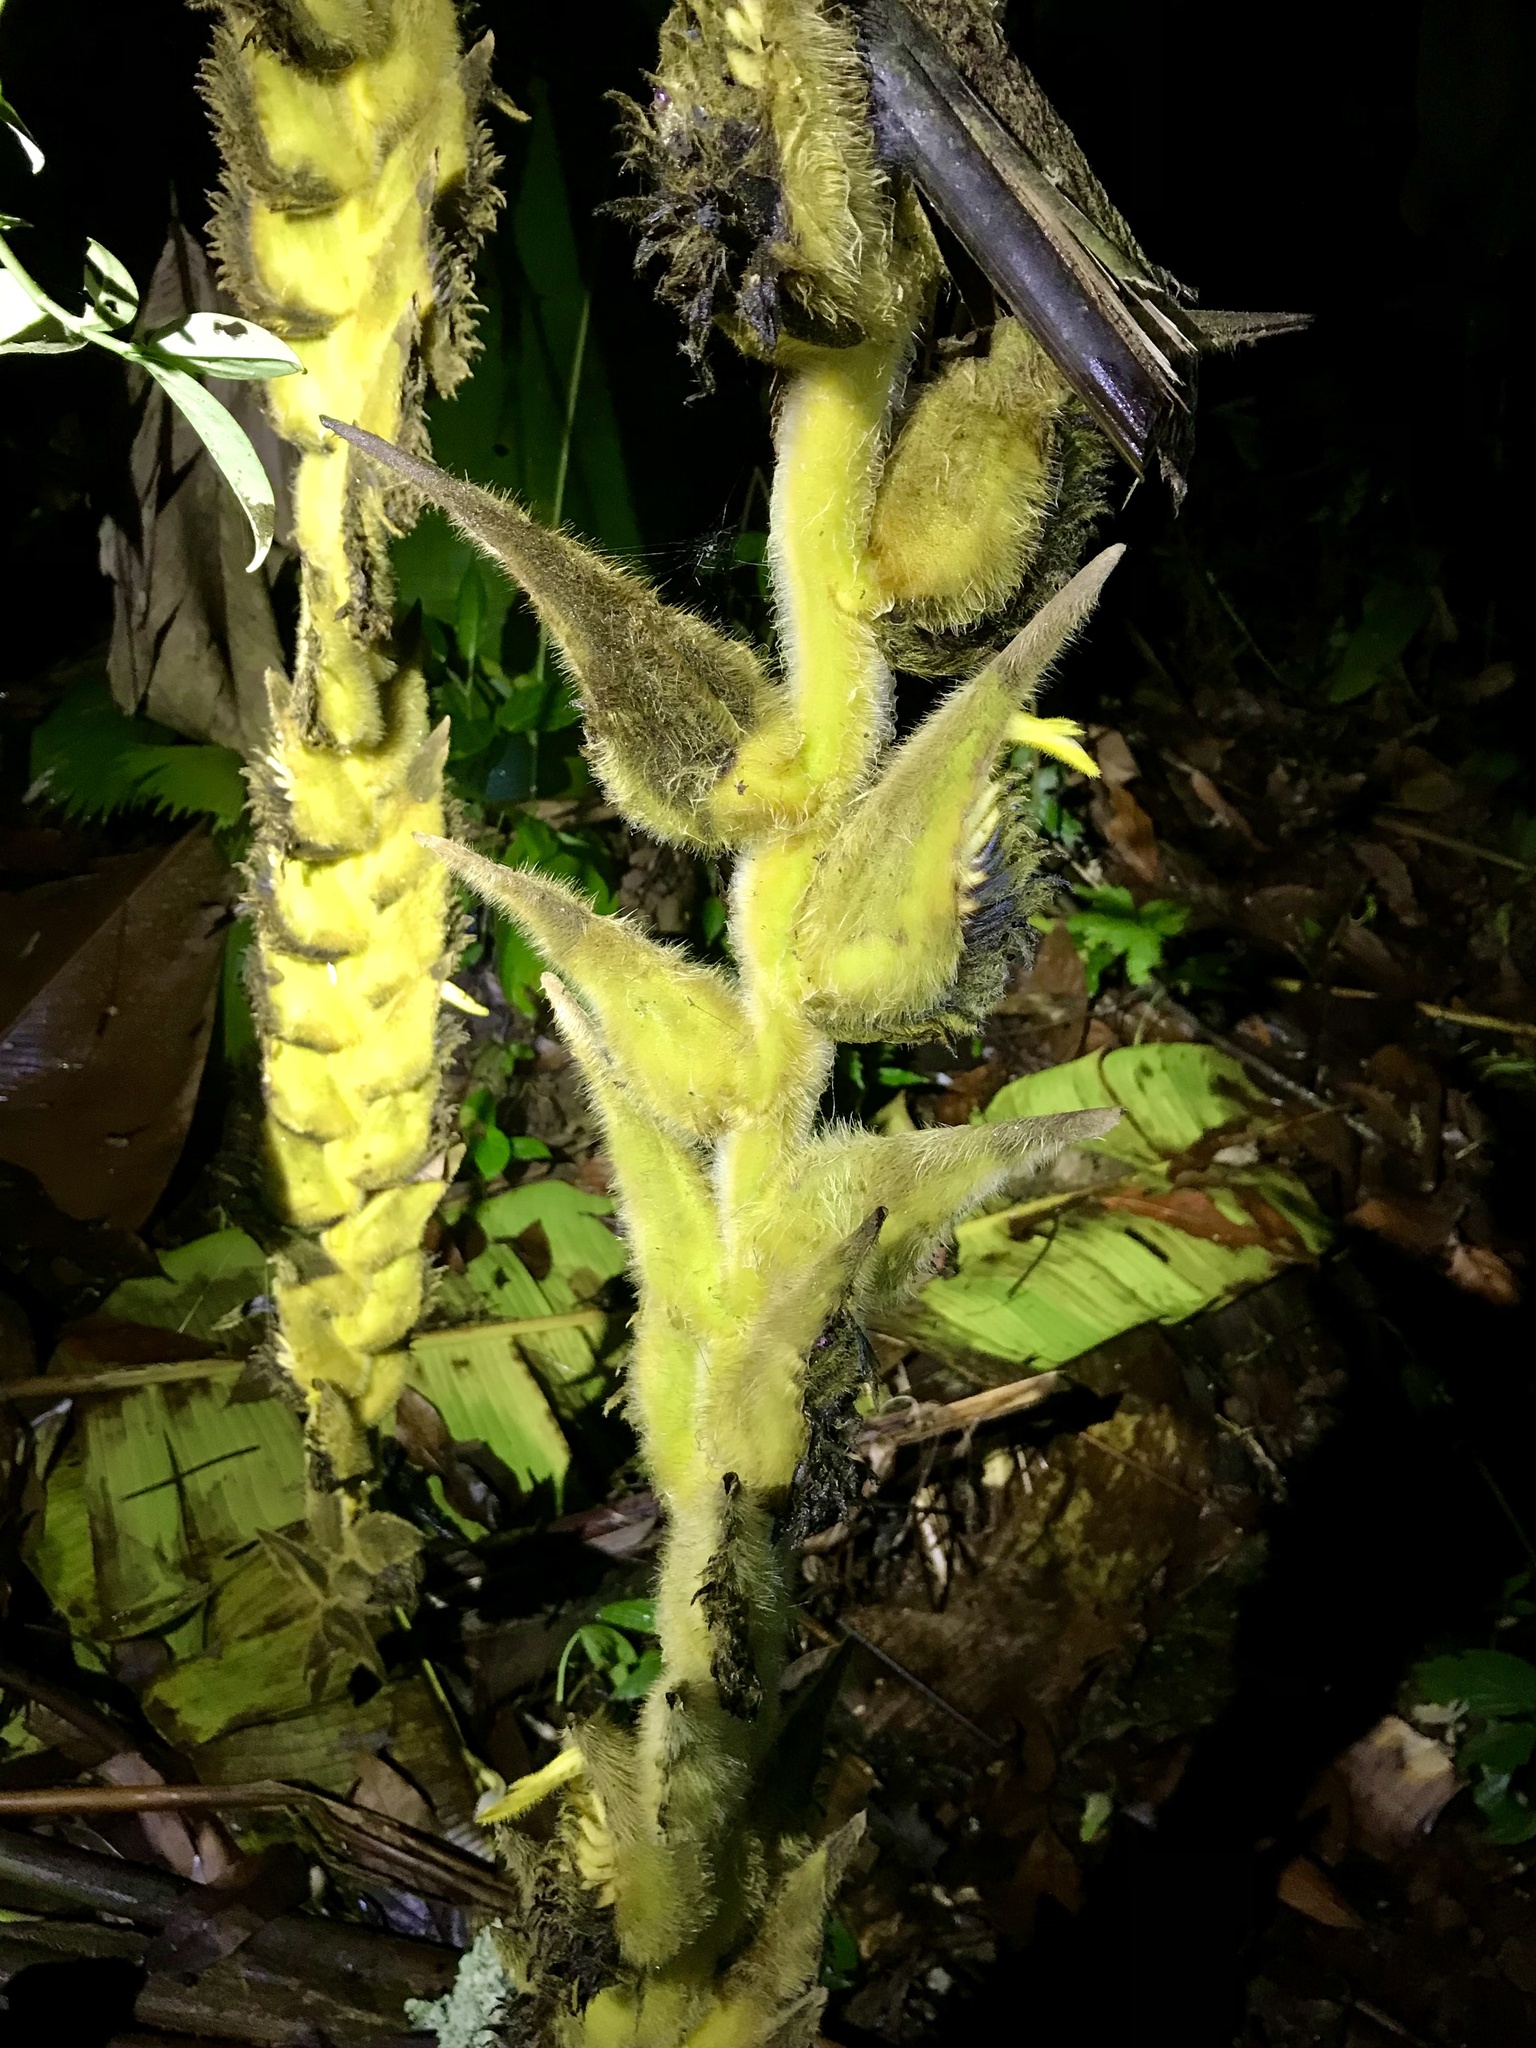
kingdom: Plantae
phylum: Tracheophyta
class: Liliopsida
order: Zingiberales
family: Heliconiaceae
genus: Heliconia
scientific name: Heliconia xanthovillosa
